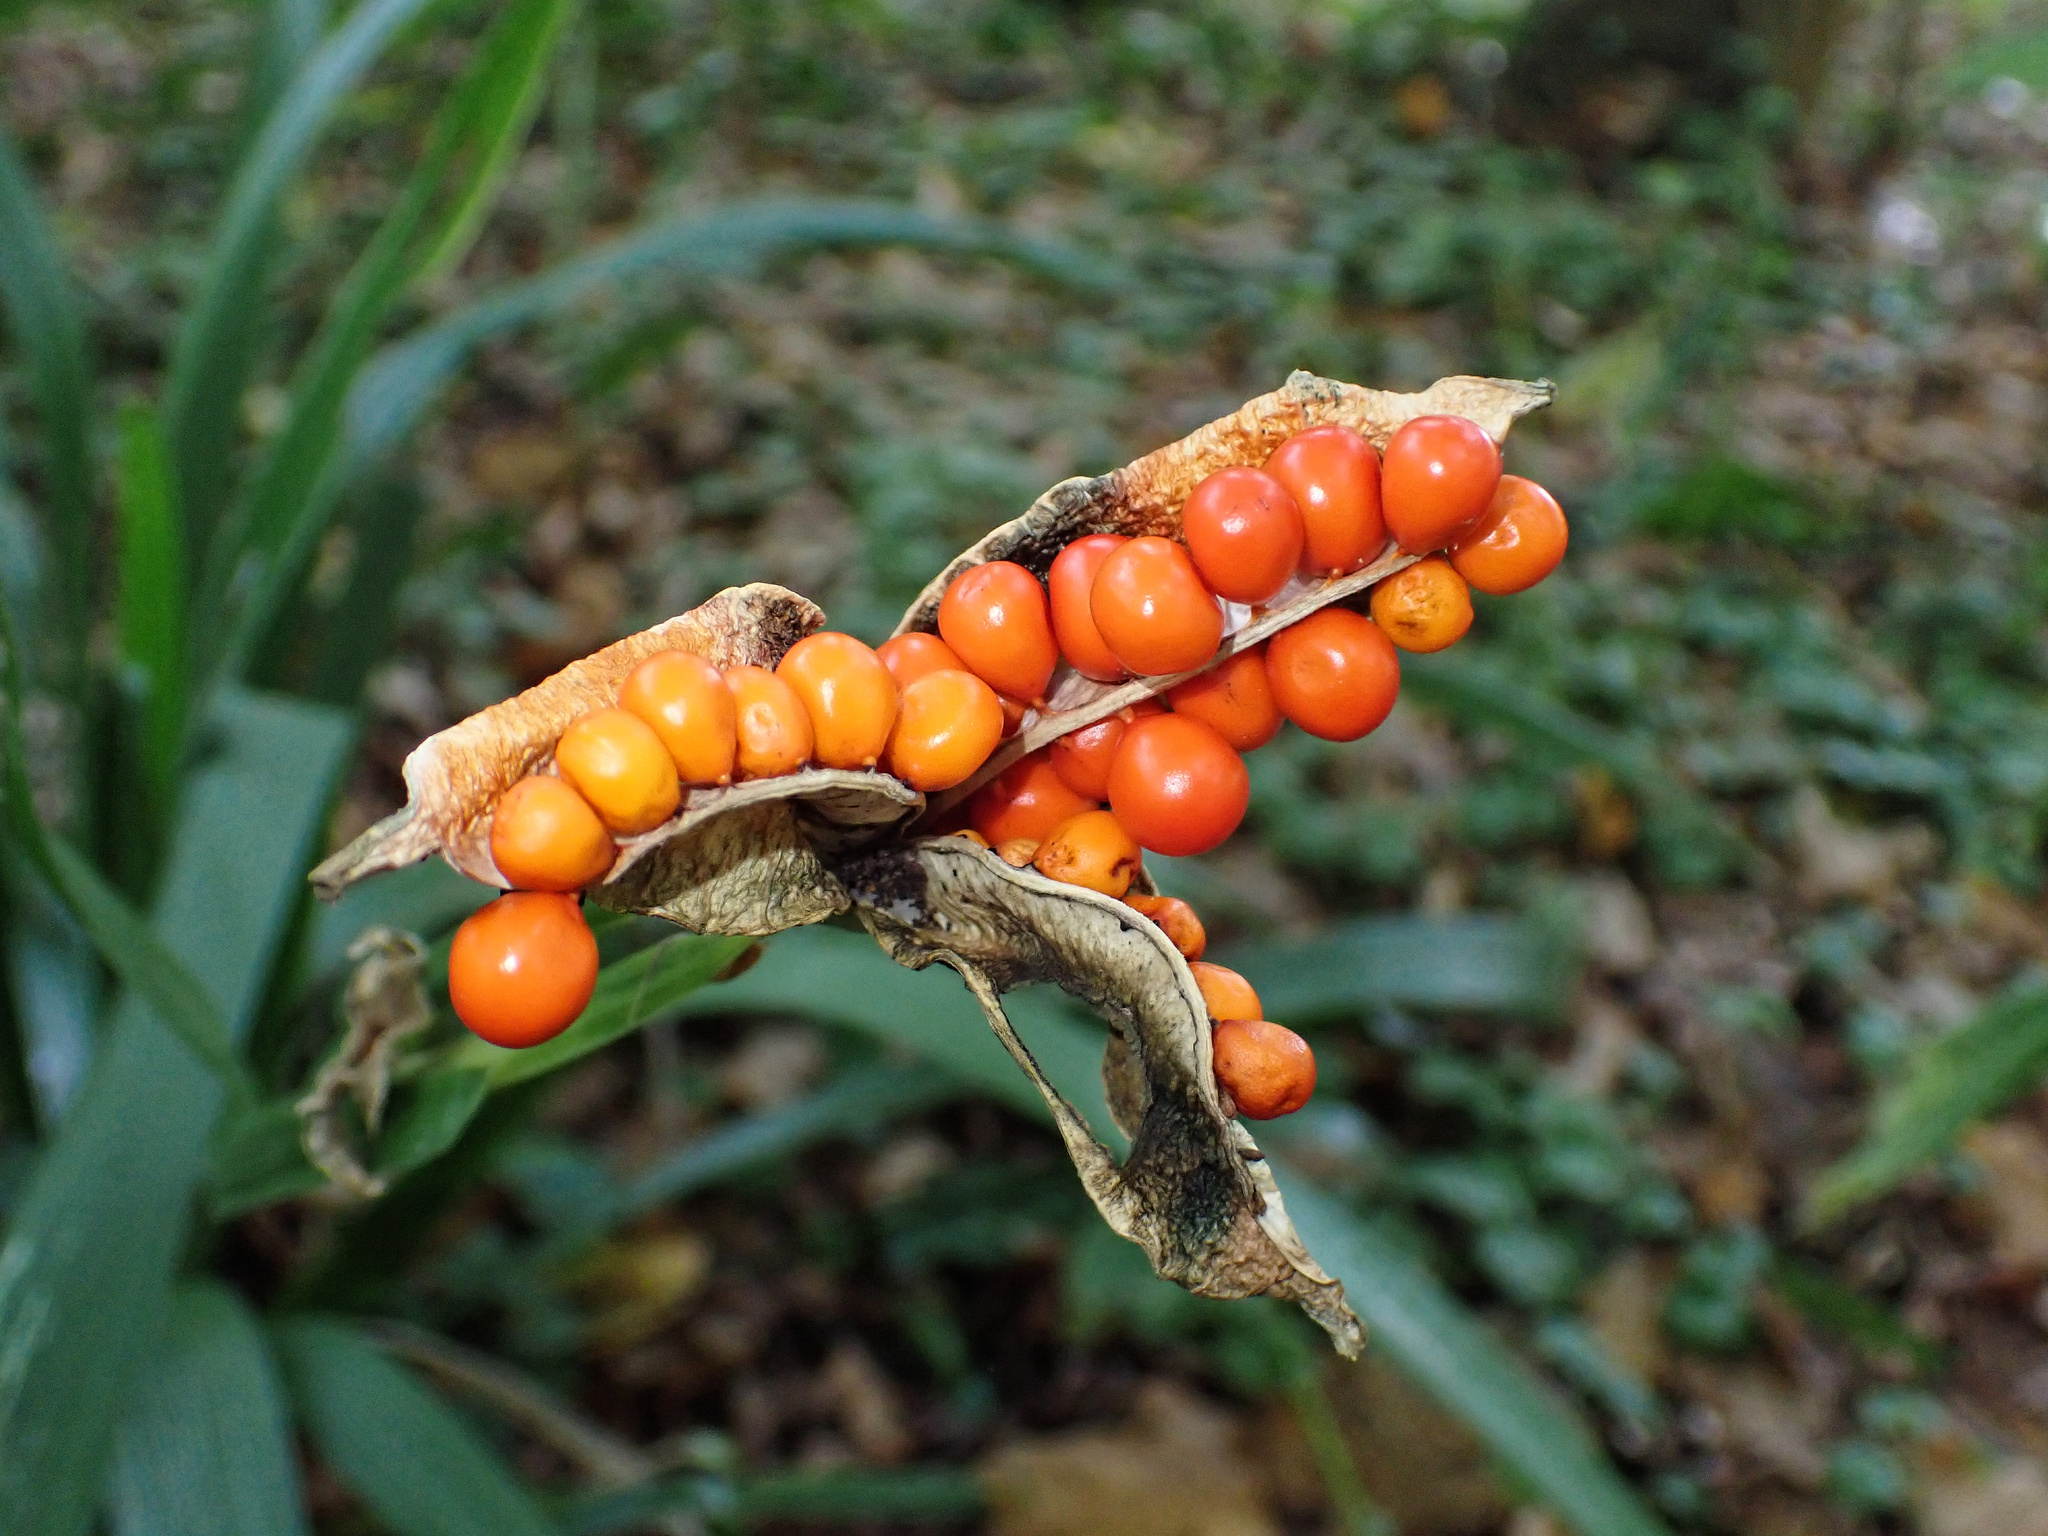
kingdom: Plantae
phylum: Tracheophyta
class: Liliopsida
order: Asparagales
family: Iridaceae
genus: Iris
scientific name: Iris foetidissima
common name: Stinking iris
